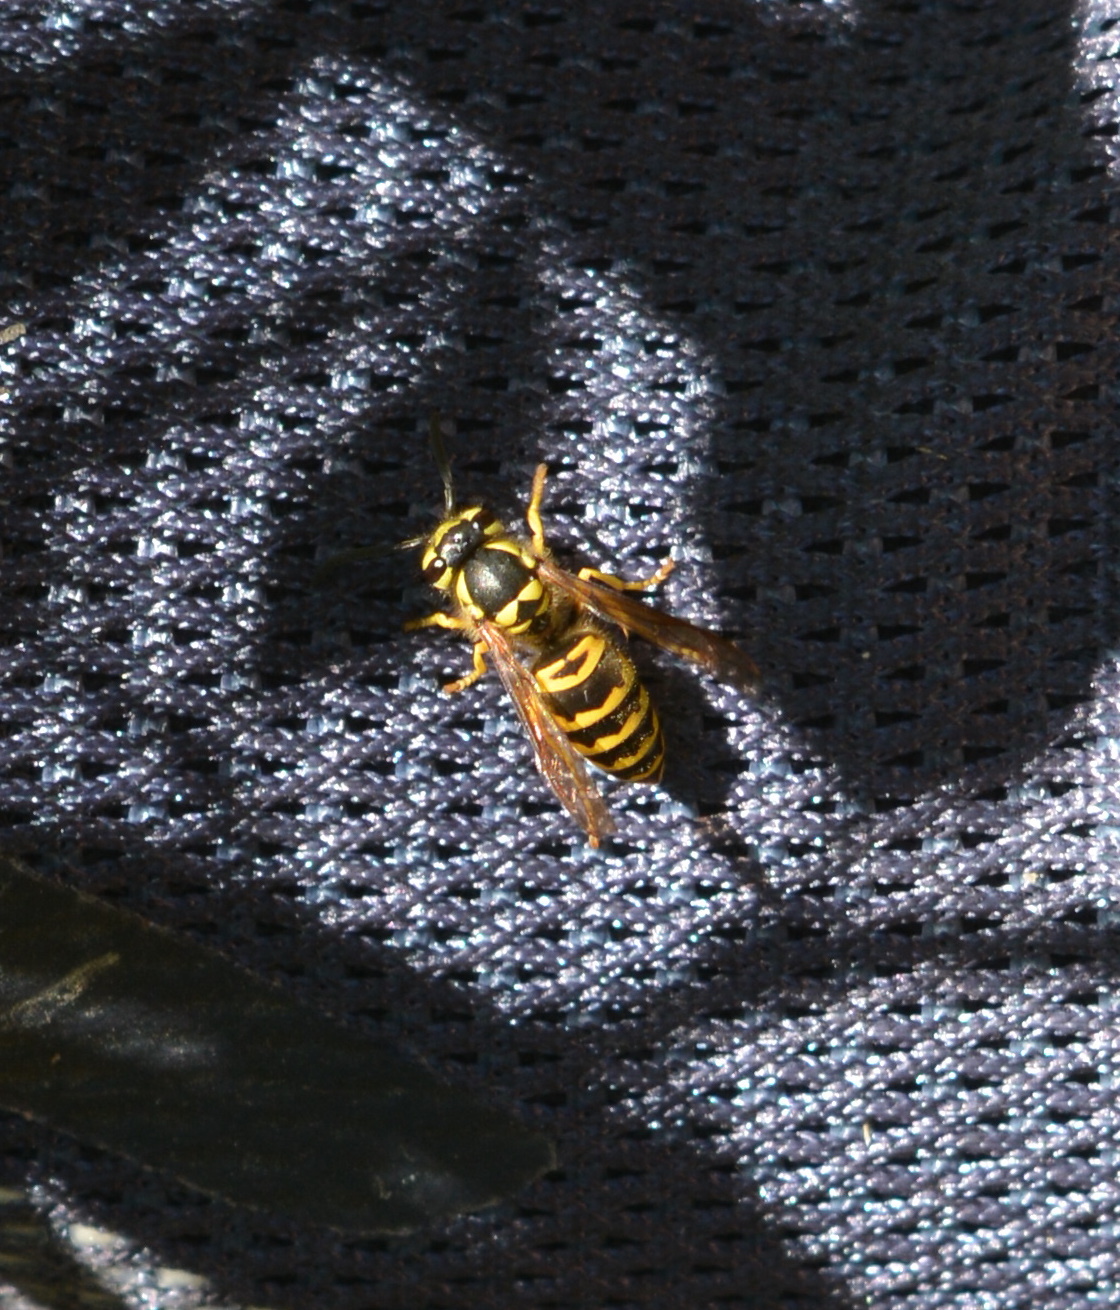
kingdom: Animalia
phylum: Arthropoda
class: Insecta
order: Hymenoptera
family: Vespidae
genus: Vespula
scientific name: Vespula maculifrons
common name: Eastern yellowjacket
